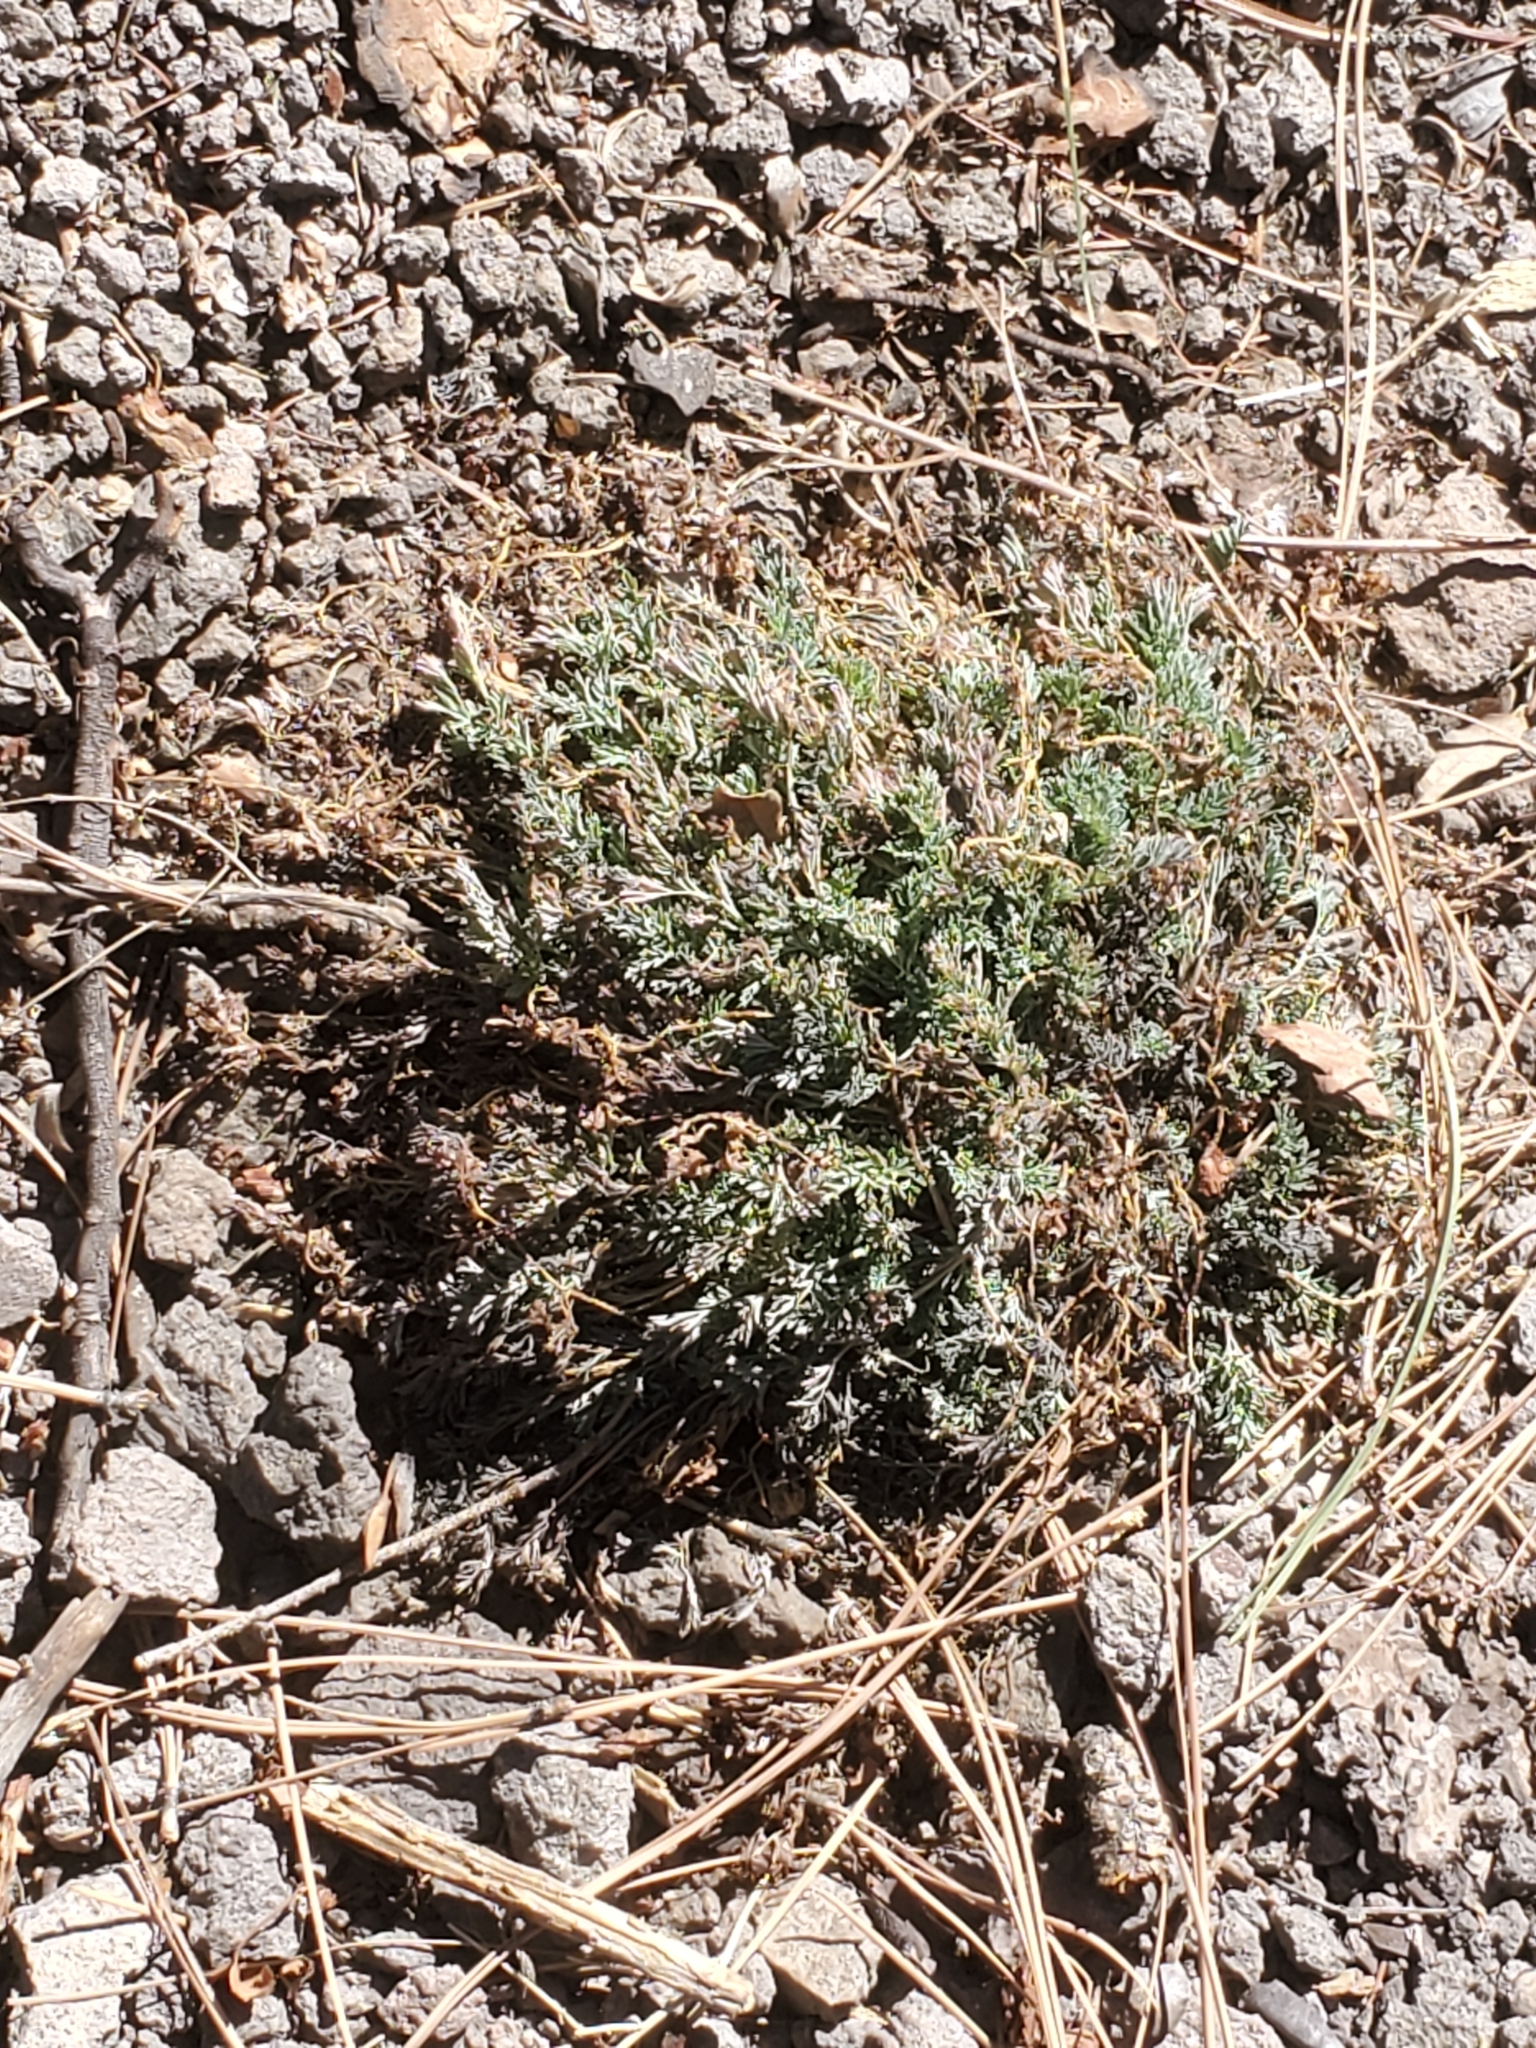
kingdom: Plantae
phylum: Tracheophyta
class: Magnoliopsida
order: Ranunculales
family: Papaveraceae
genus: Corydalis
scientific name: Corydalis aurea
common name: Golden corydalis
